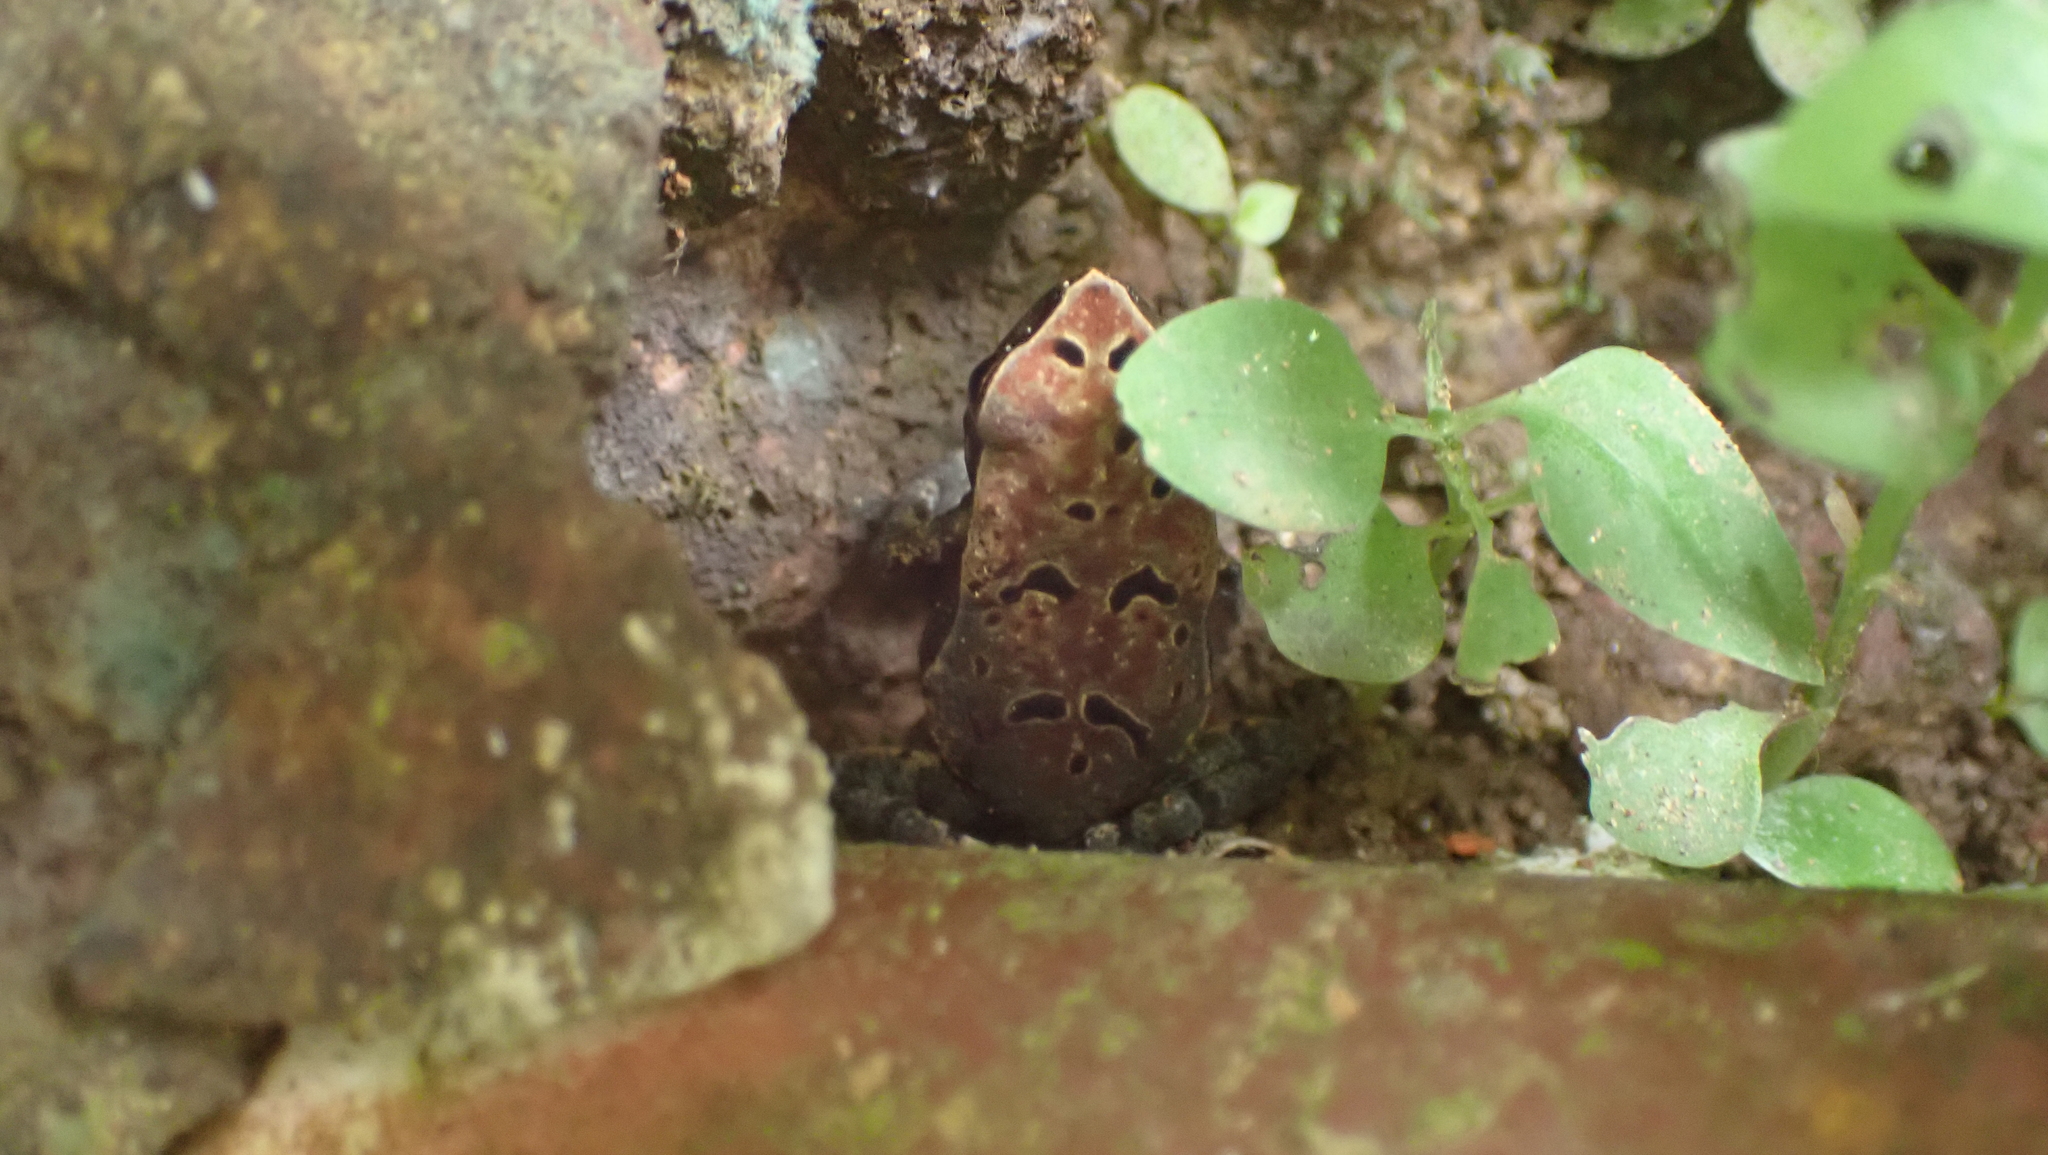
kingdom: Animalia
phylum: Chordata
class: Amphibia
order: Anura
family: Bufonidae
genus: Rhaebo
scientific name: Rhaebo haematiticus
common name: Truando toad
